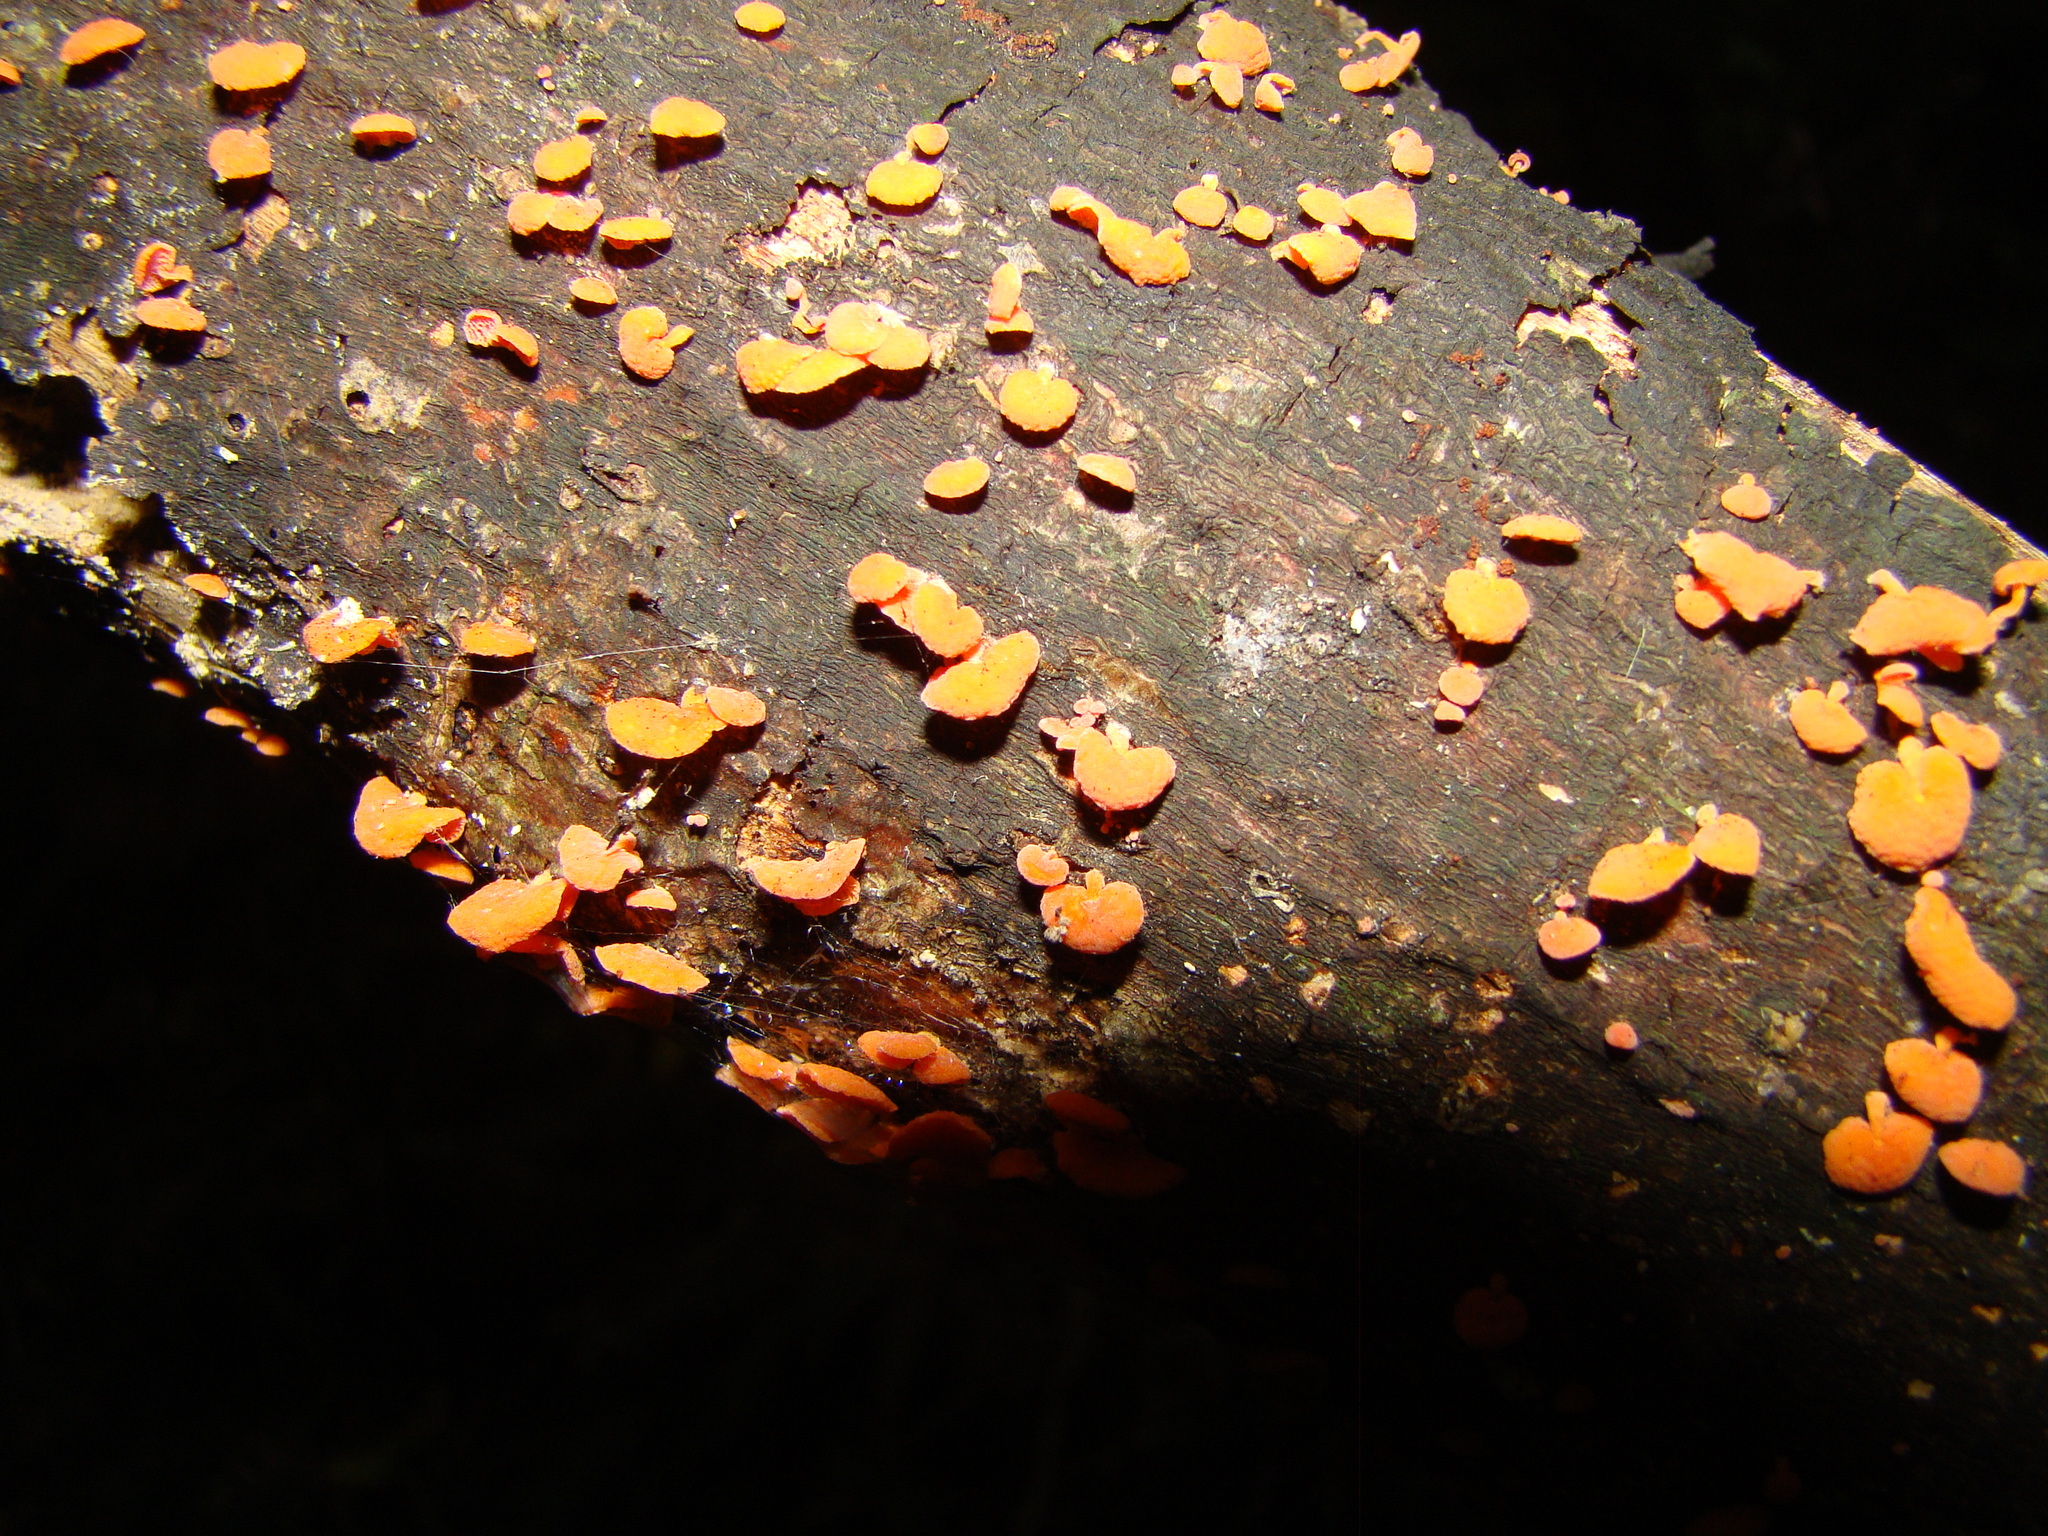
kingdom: Fungi
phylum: Basidiomycota
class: Agaricomycetes
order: Agaricales
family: Mycenaceae
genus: Favolaschia
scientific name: Favolaschia claudopus
